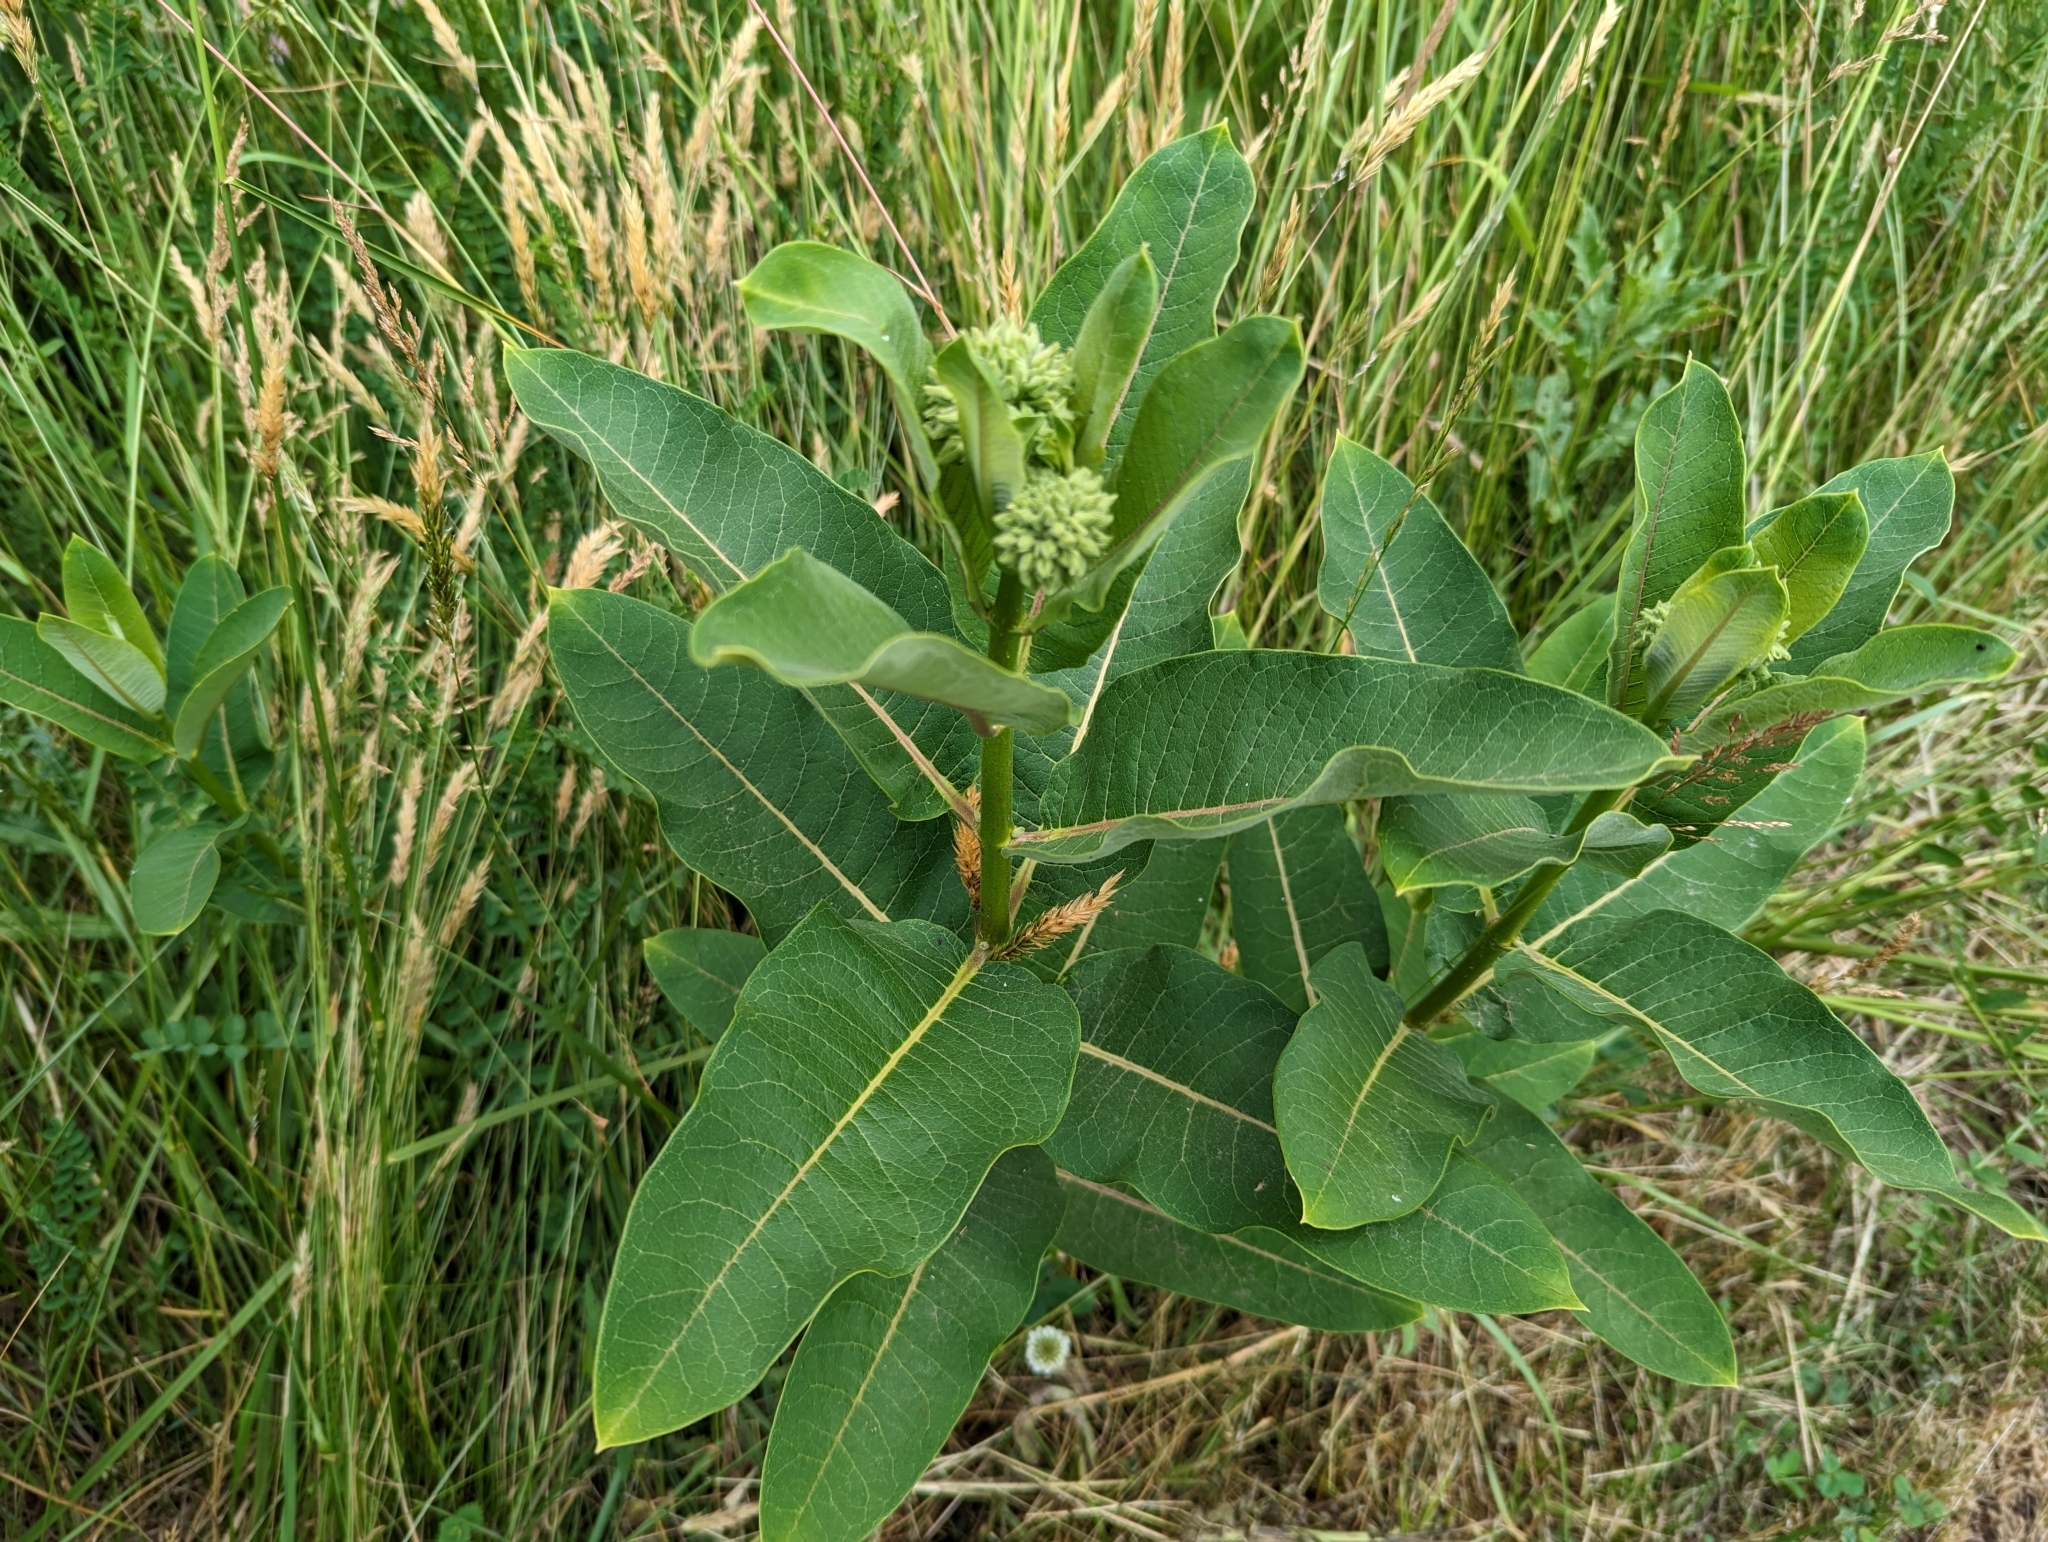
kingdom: Plantae
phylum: Tracheophyta
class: Magnoliopsida
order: Gentianales
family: Apocynaceae
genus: Asclepias
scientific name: Asclepias syriaca
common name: Common milkweed
